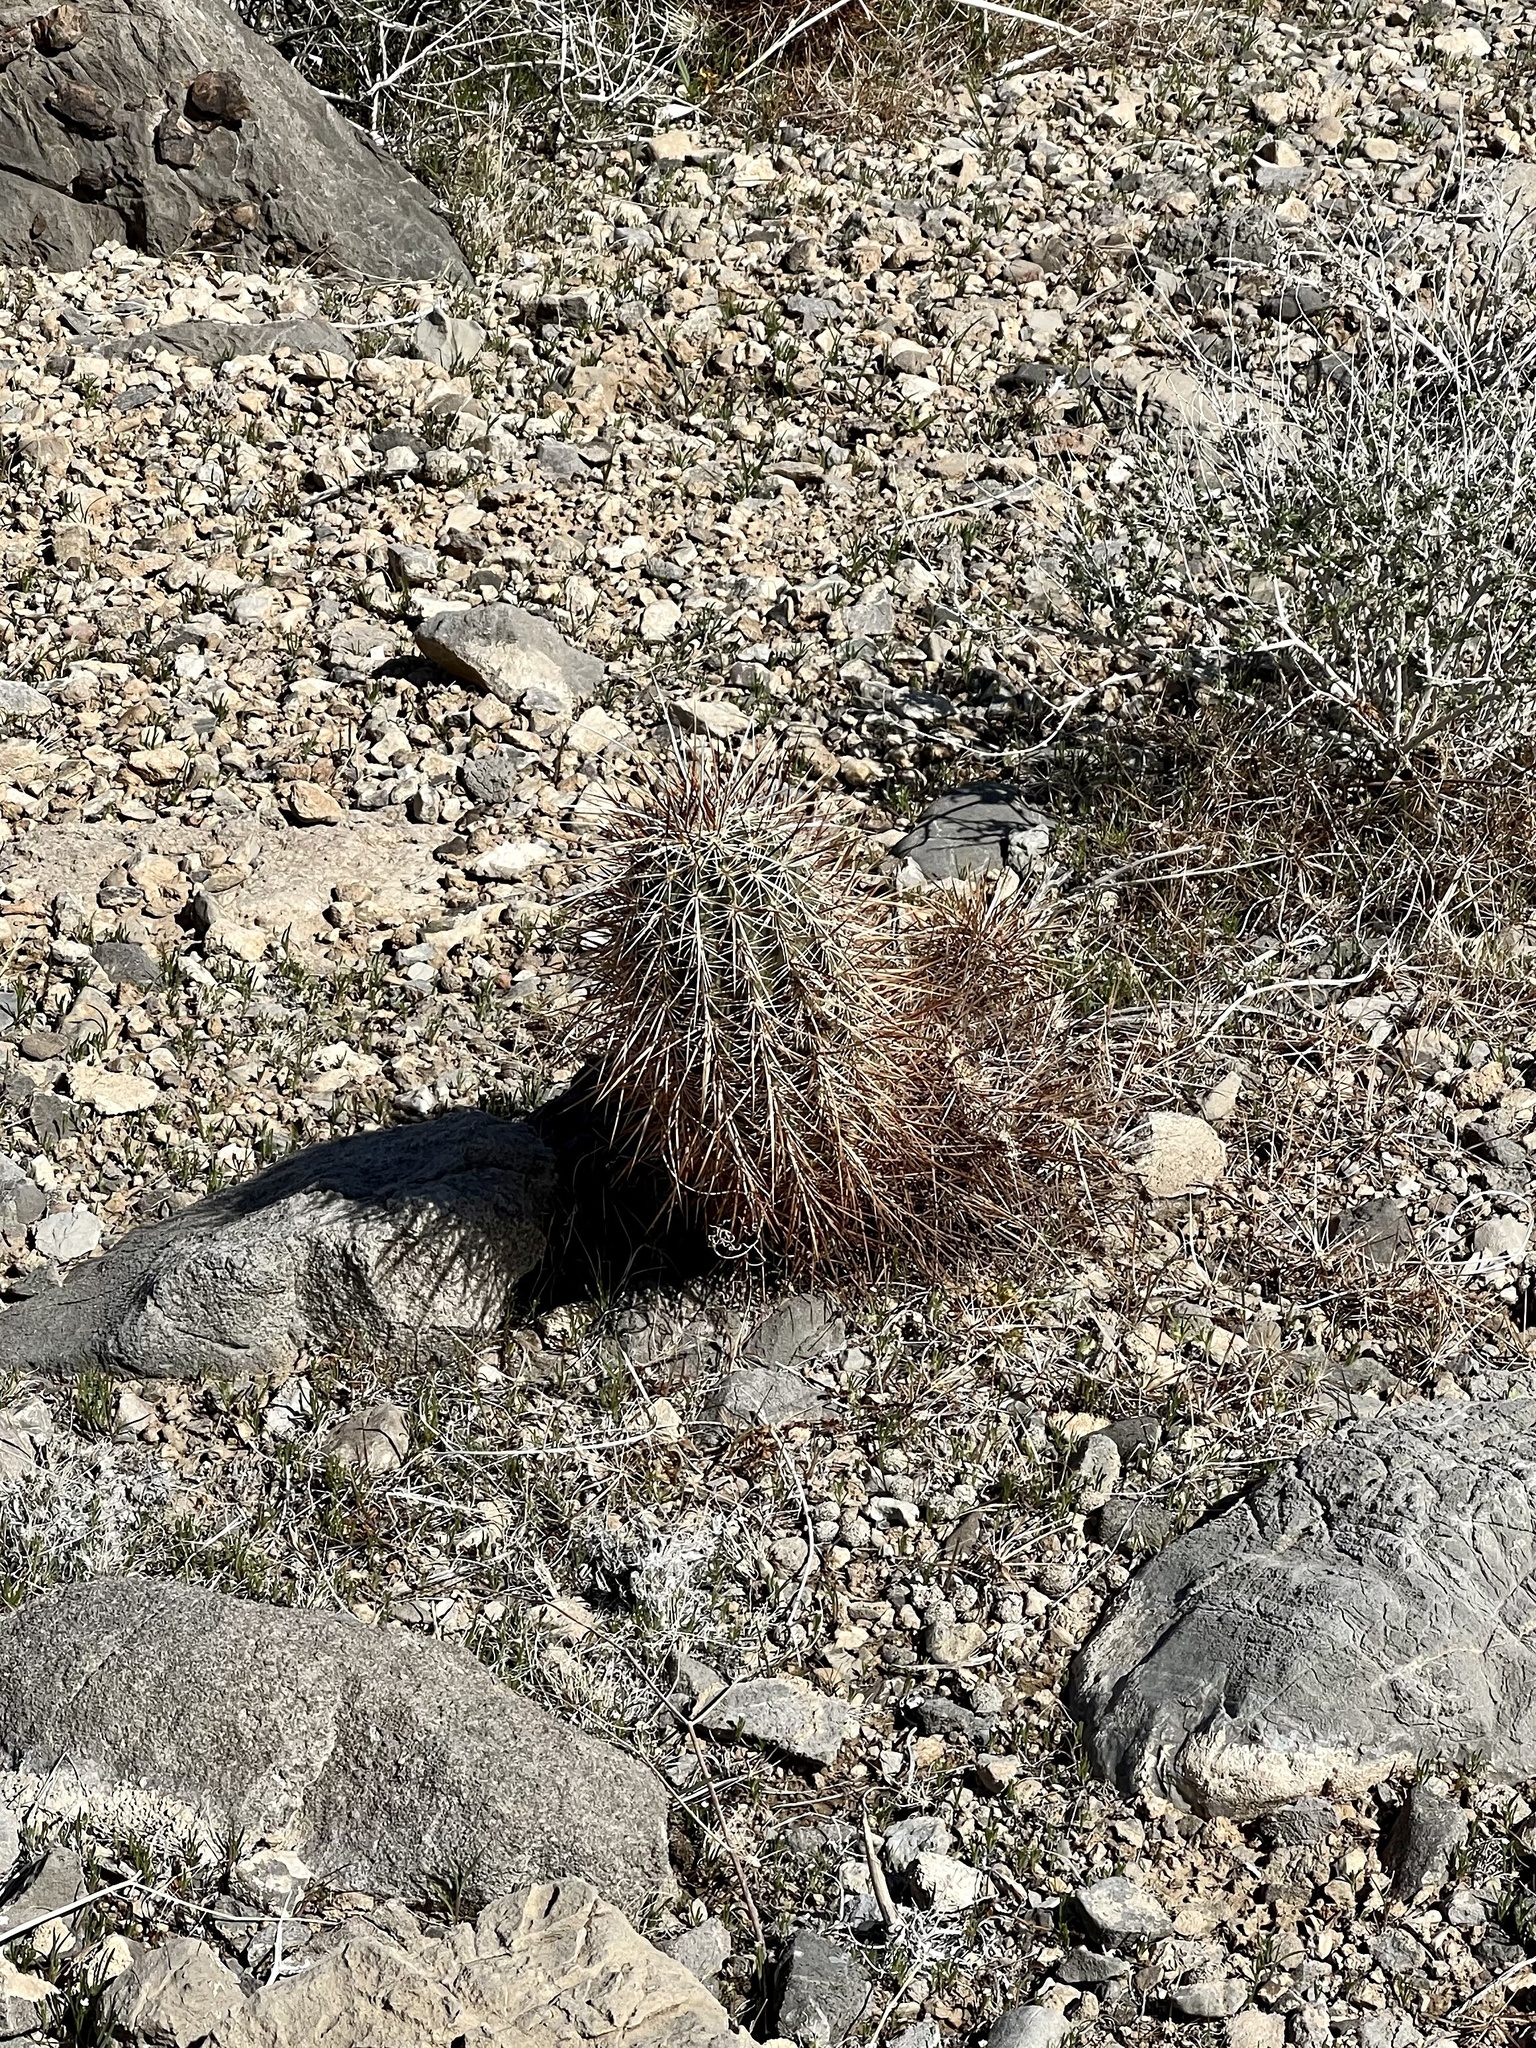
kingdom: Plantae
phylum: Tracheophyta
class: Magnoliopsida
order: Caryophyllales
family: Cactaceae
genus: Echinocereus
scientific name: Echinocereus engelmannii
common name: Engelmann's hedgehog cactus
